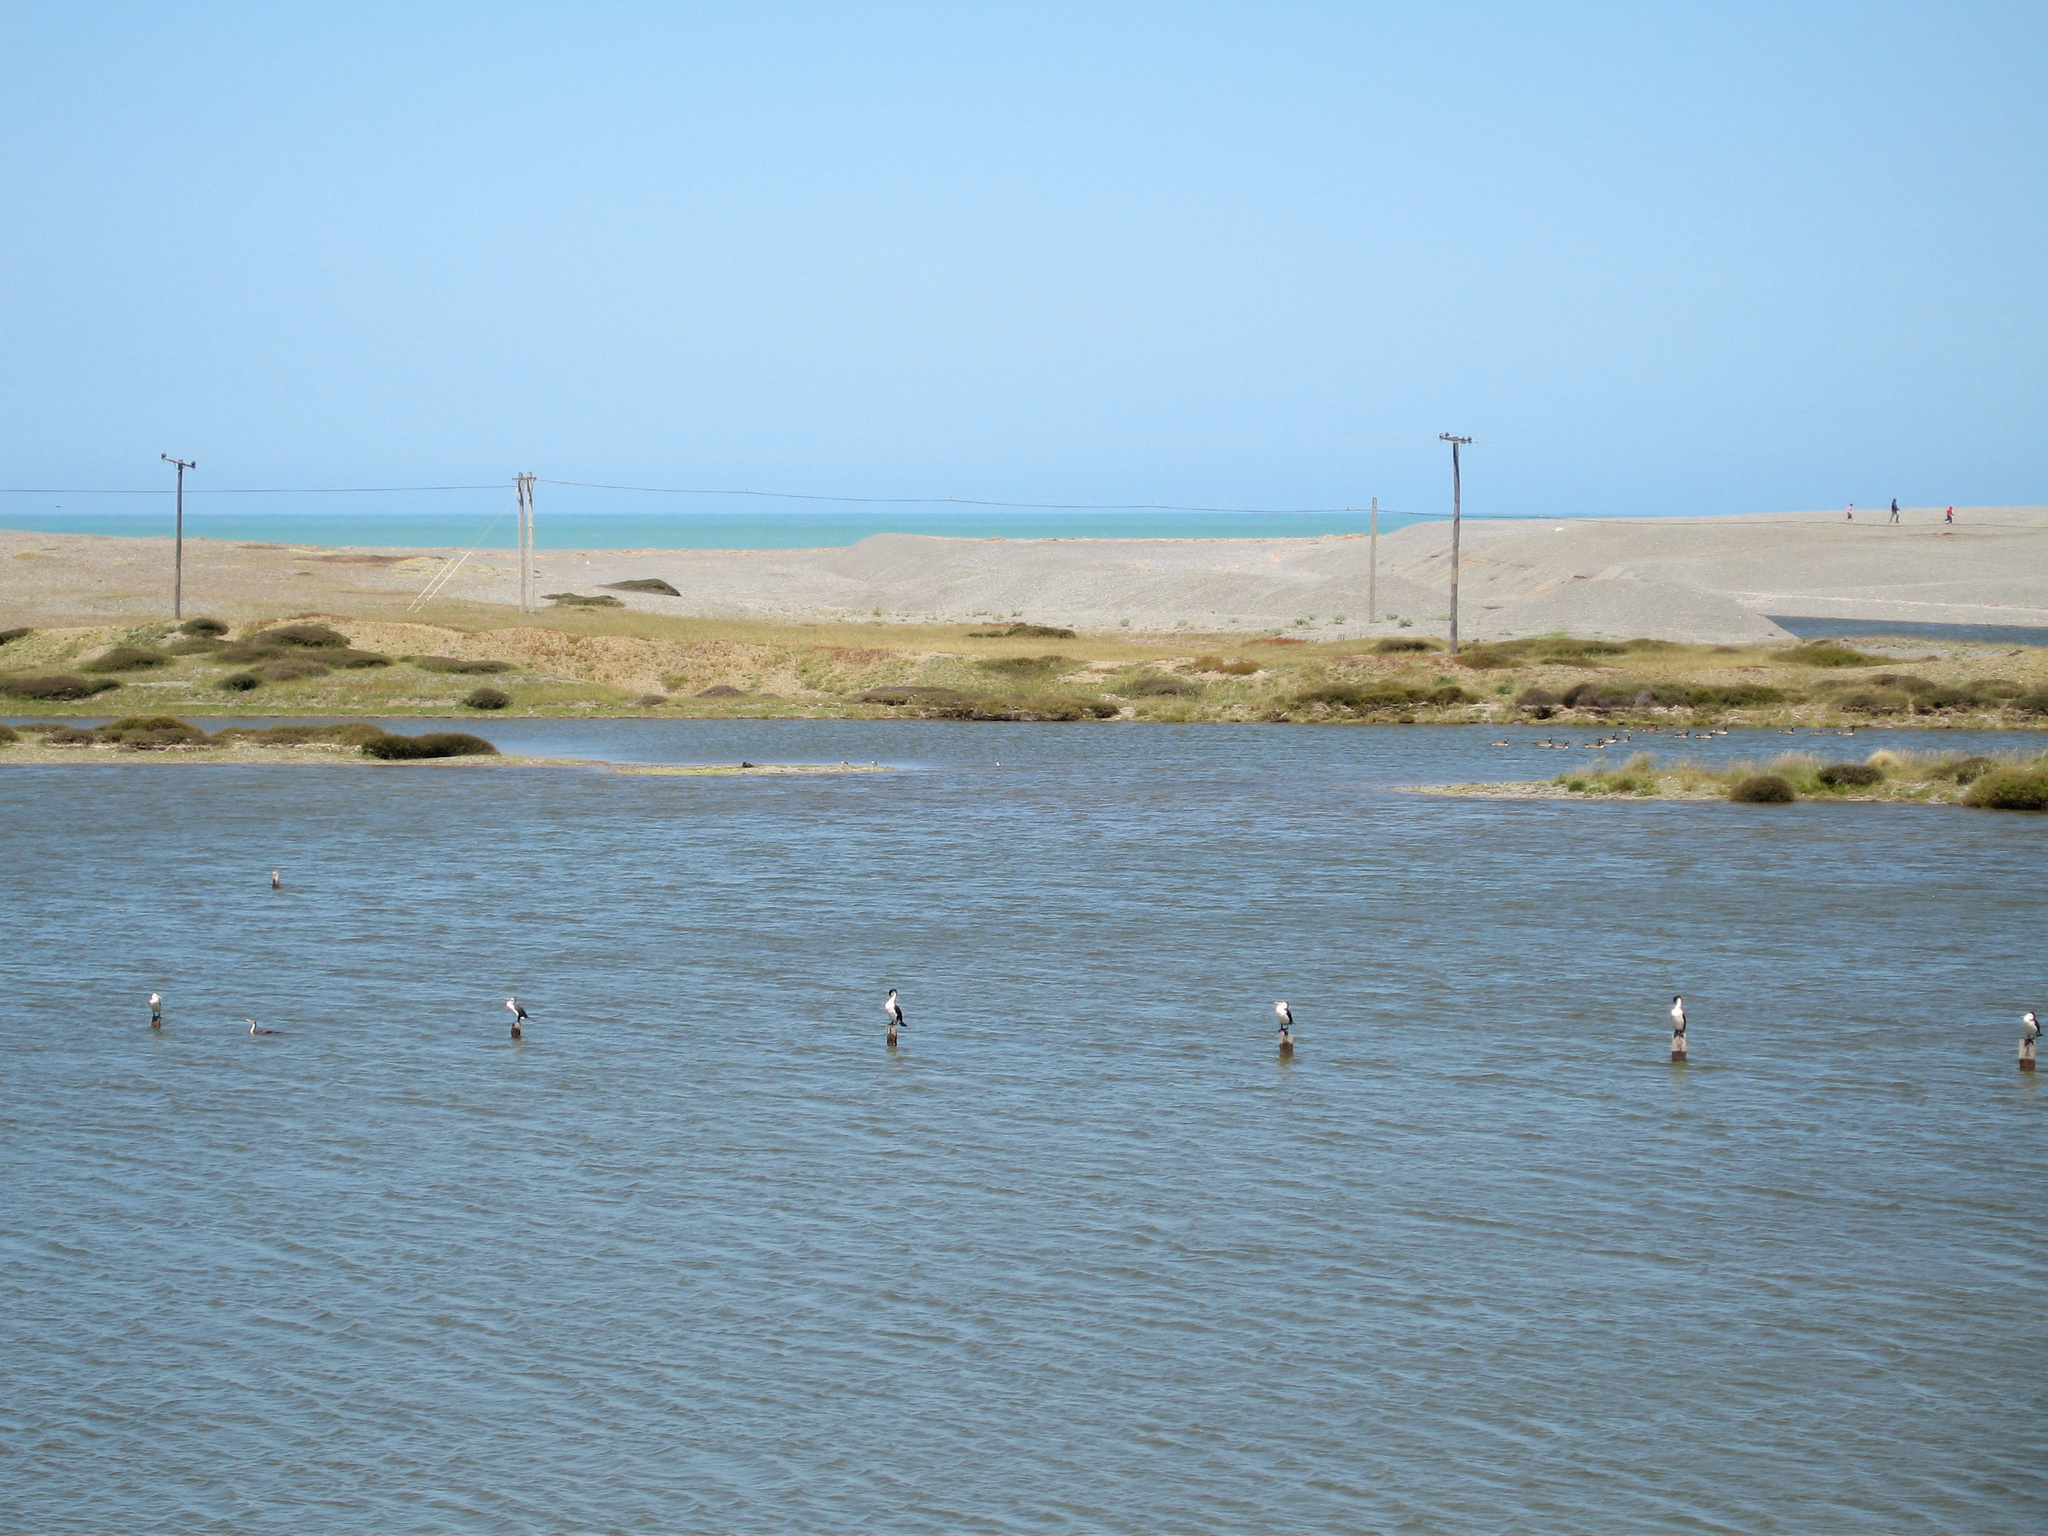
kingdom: Animalia
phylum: Chordata
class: Aves
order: Suliformes
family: Phalacrocoracidae
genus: Phalacrocorax
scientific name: Phalacrocorax varius
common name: Pied cormorant
